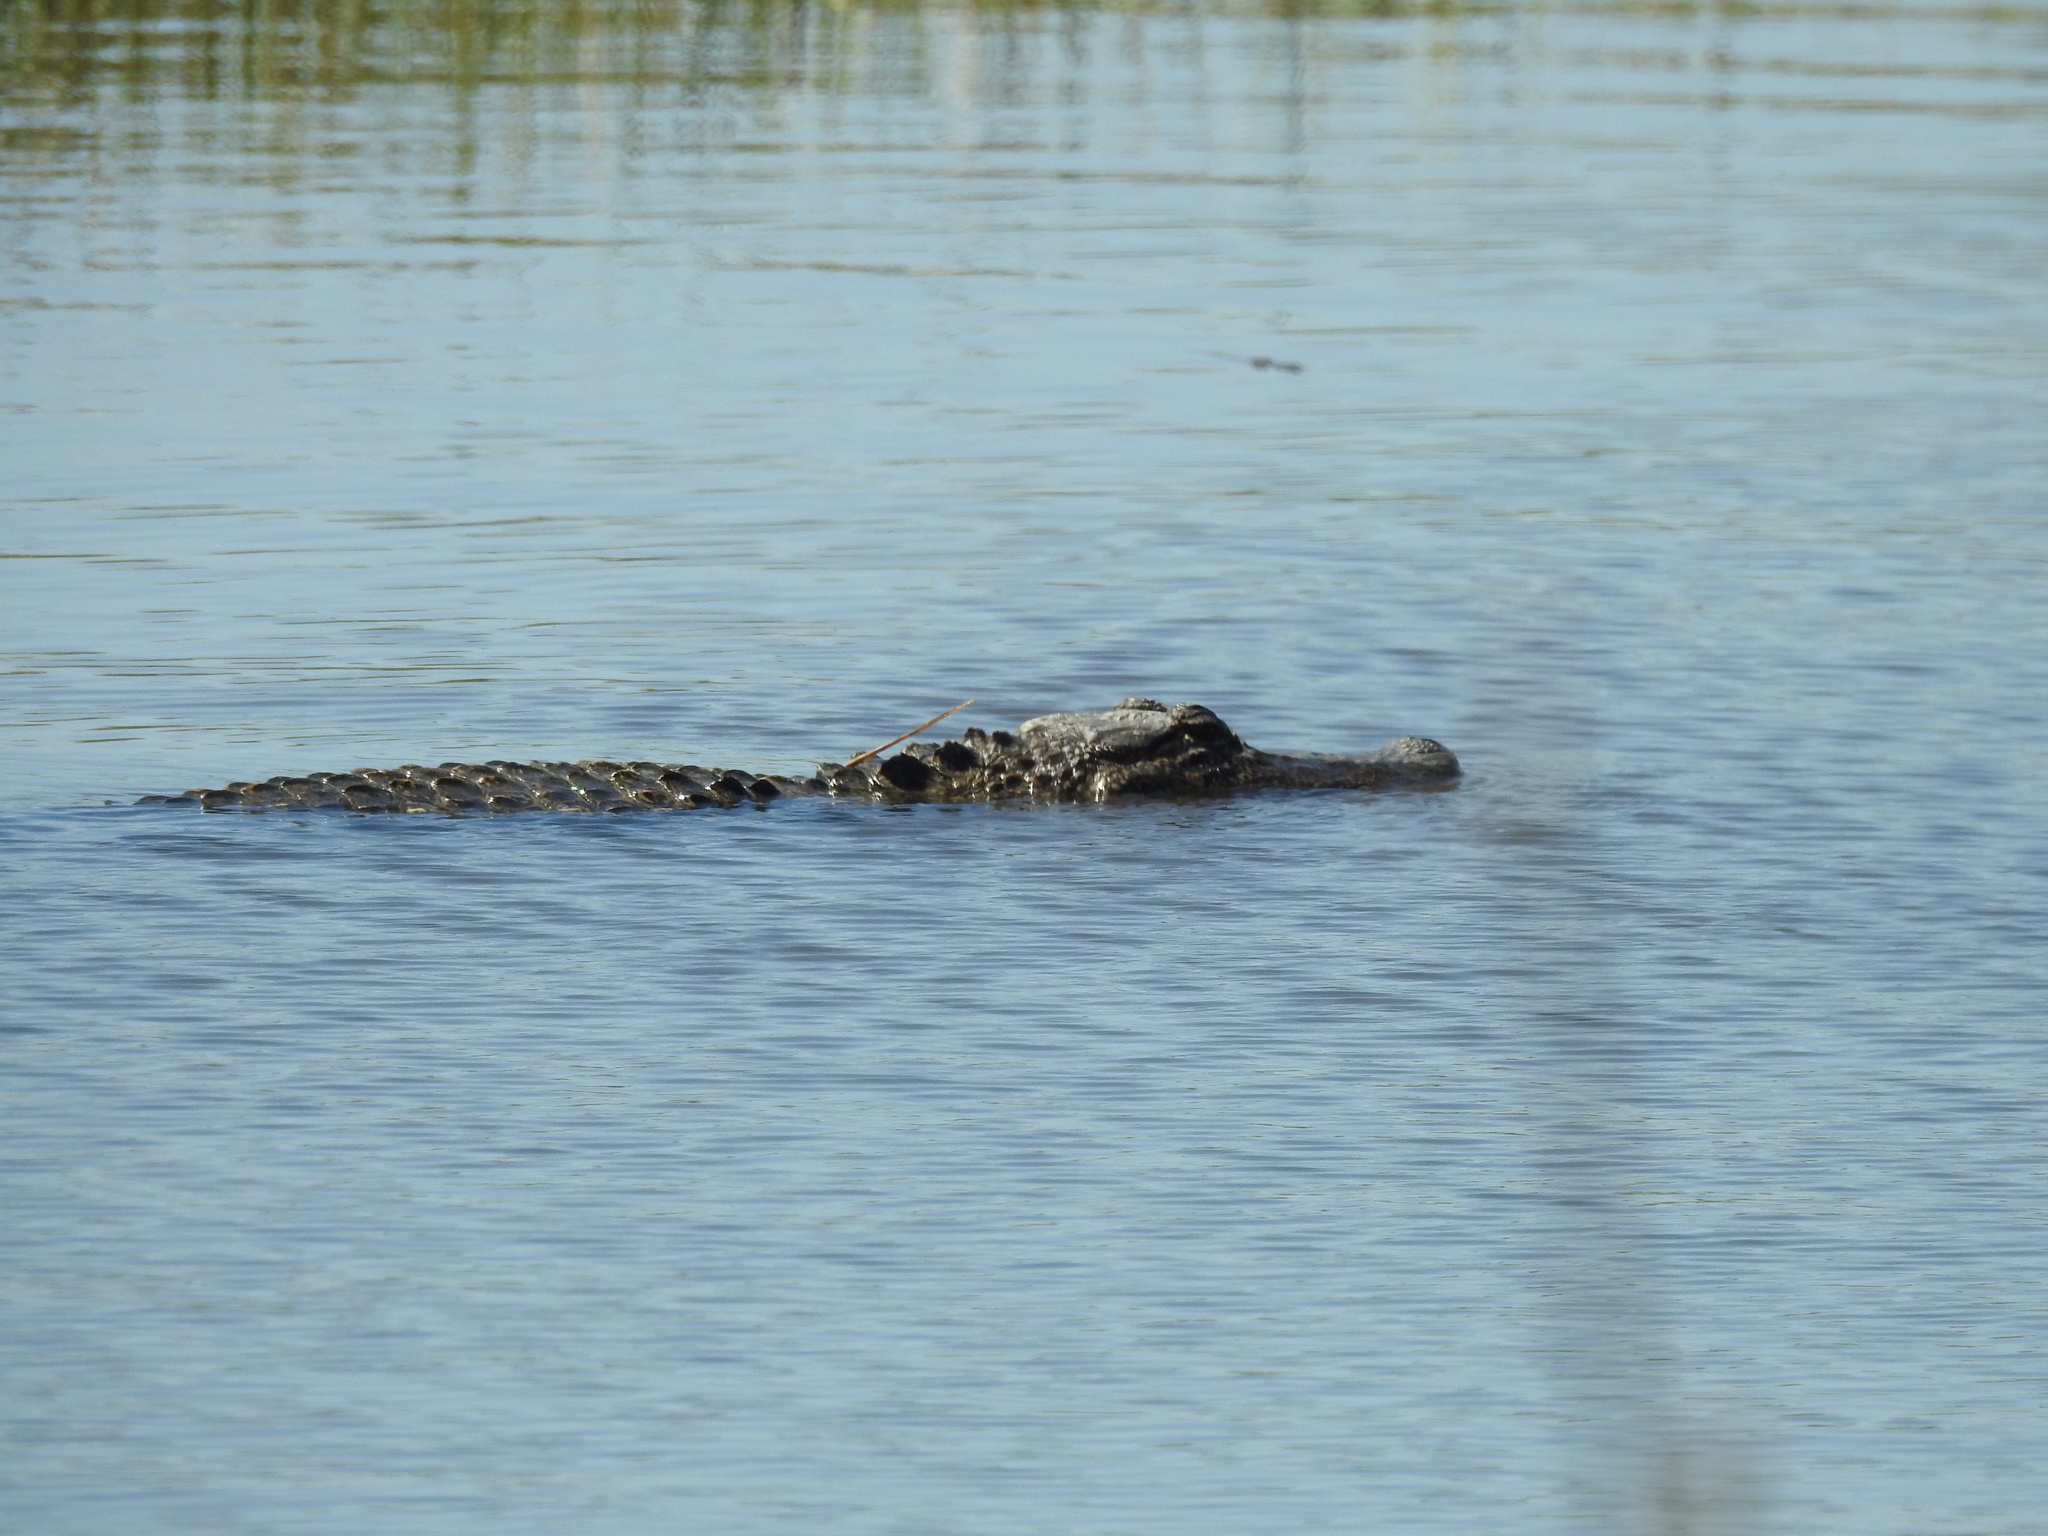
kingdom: Animalia
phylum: Chordata
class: Crocodylia
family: Alligatoridae
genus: Alligator
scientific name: Alligator mississippiensis
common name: American alligator
